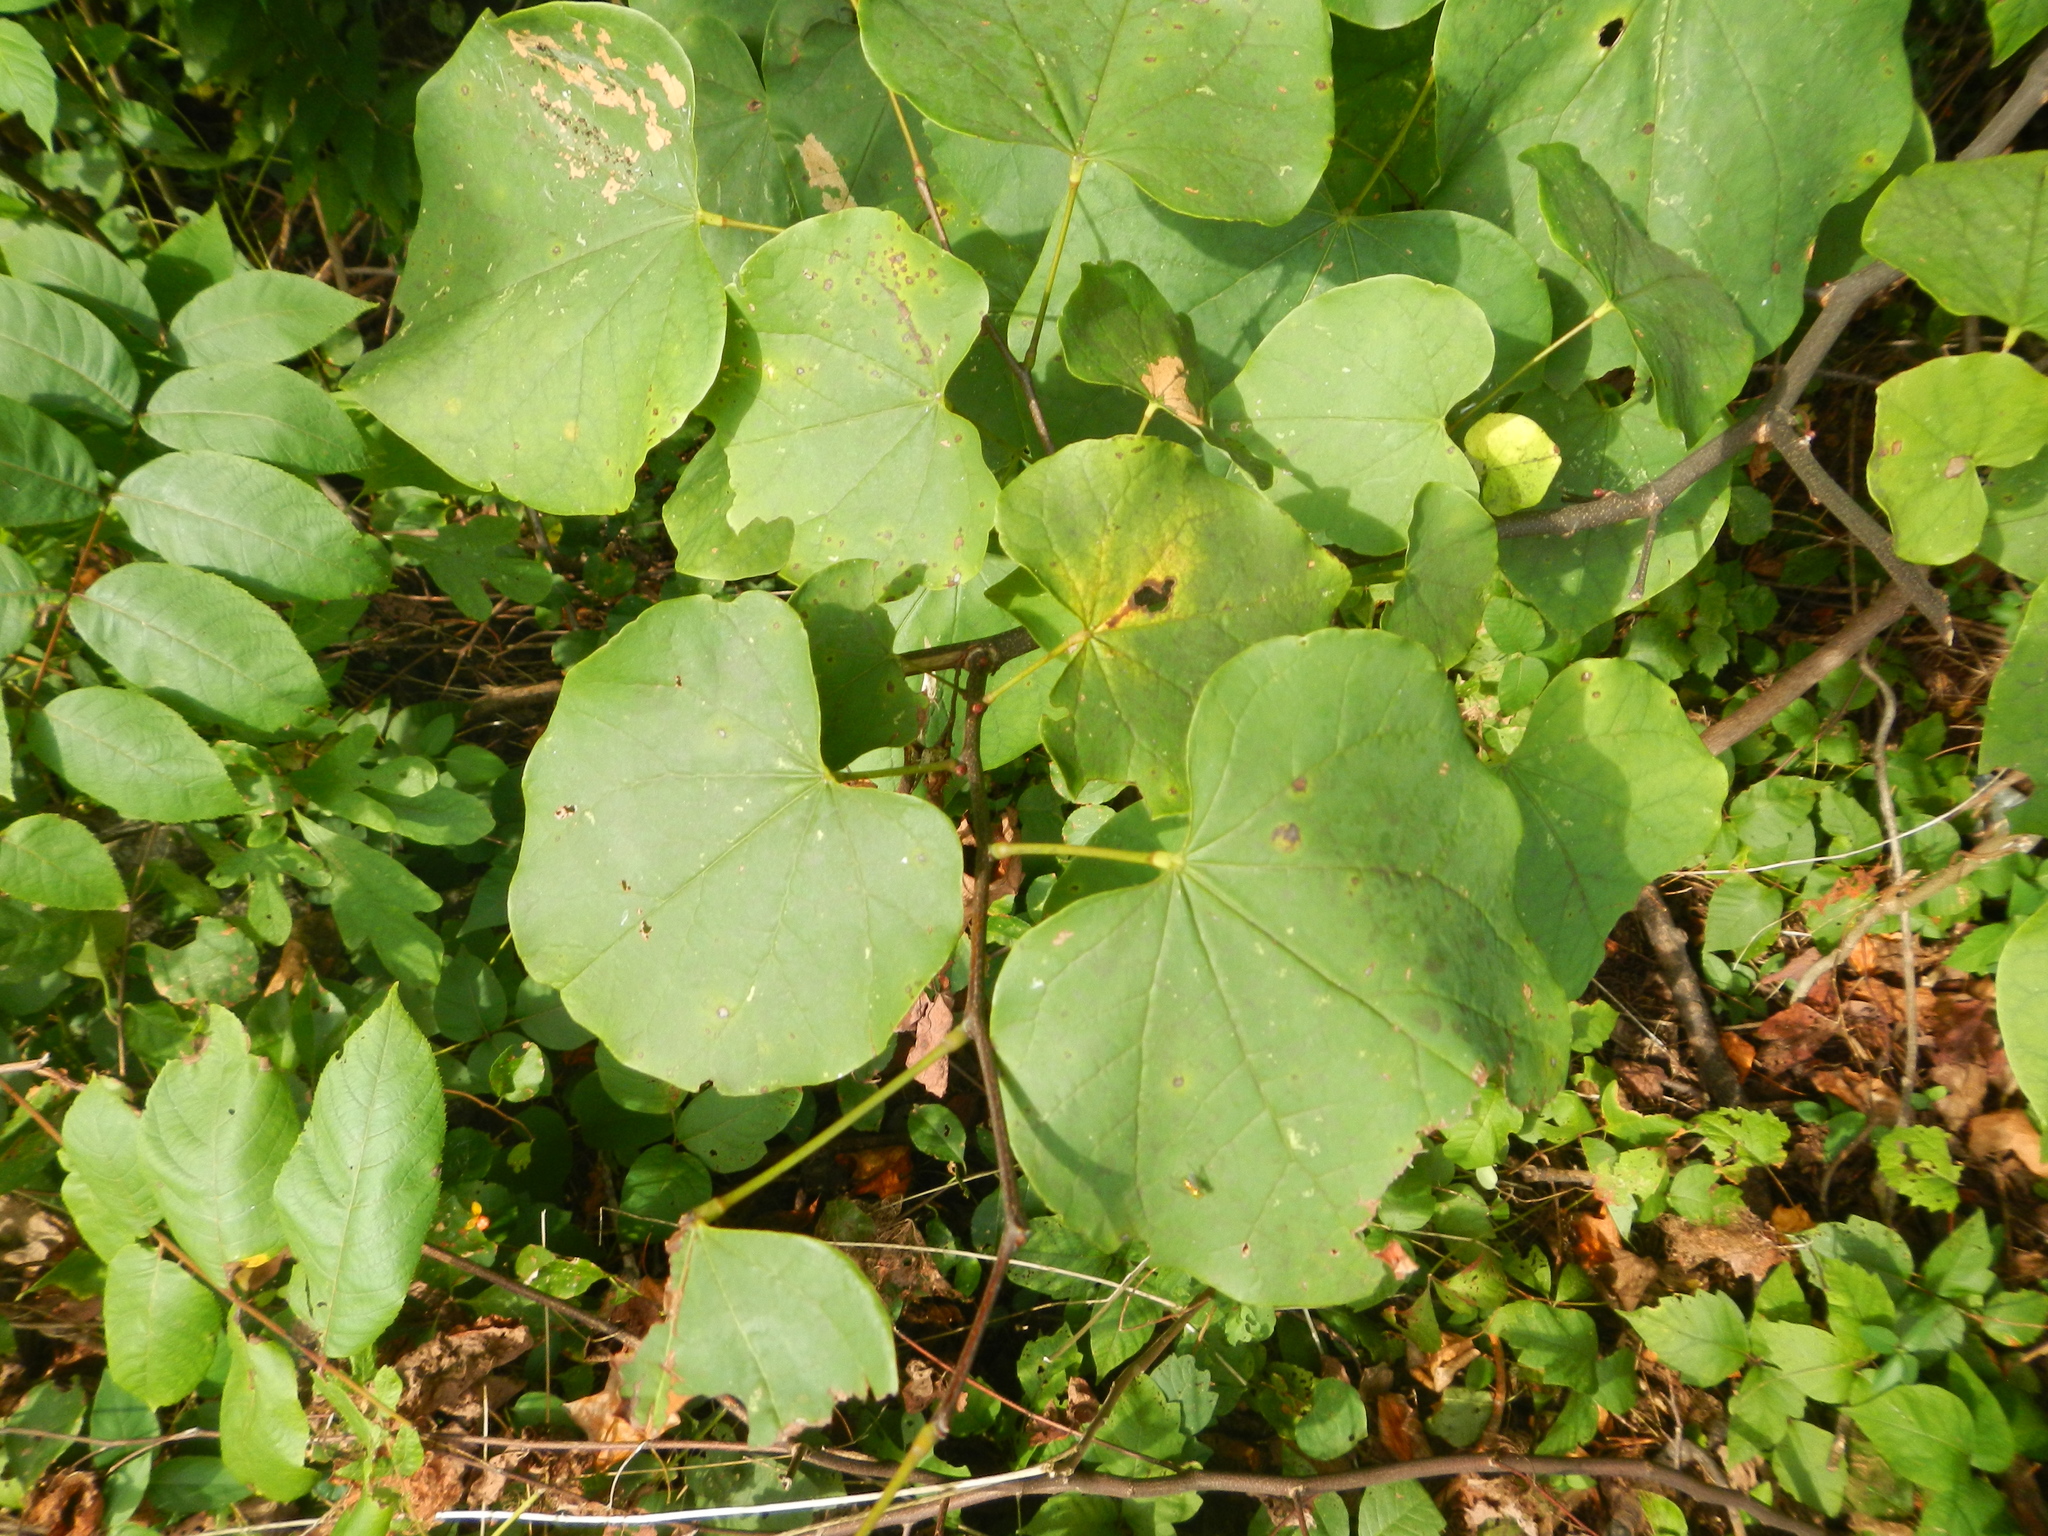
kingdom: Plantae
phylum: Tracheophyta
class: Magnoliopsida
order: Fabales
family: Fabaceae
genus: Cercis
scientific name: Cercis canadensis
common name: Eastern redbud
